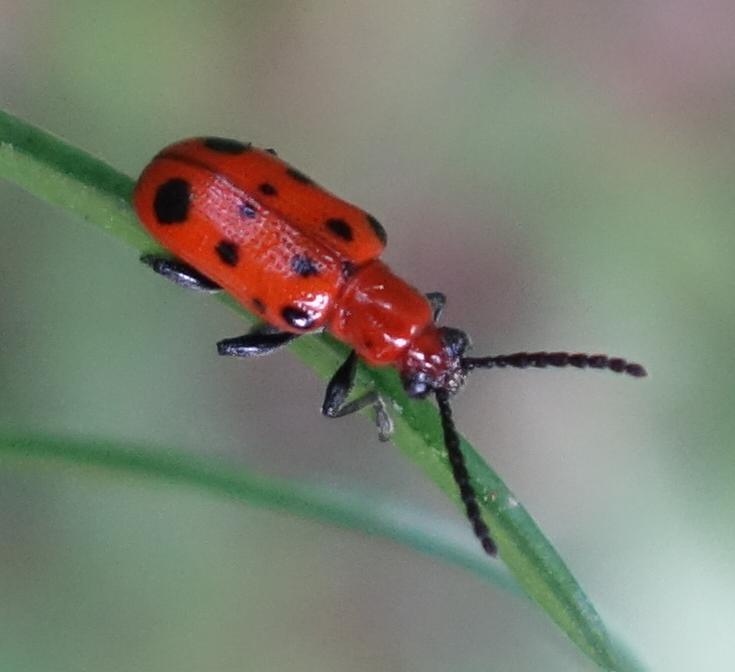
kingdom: Animalia
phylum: Arthropoda
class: Insecta
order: Coleoptera
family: Chrysomelidae
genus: Crioceris
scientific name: Crioceris quatuordecimpunctata
